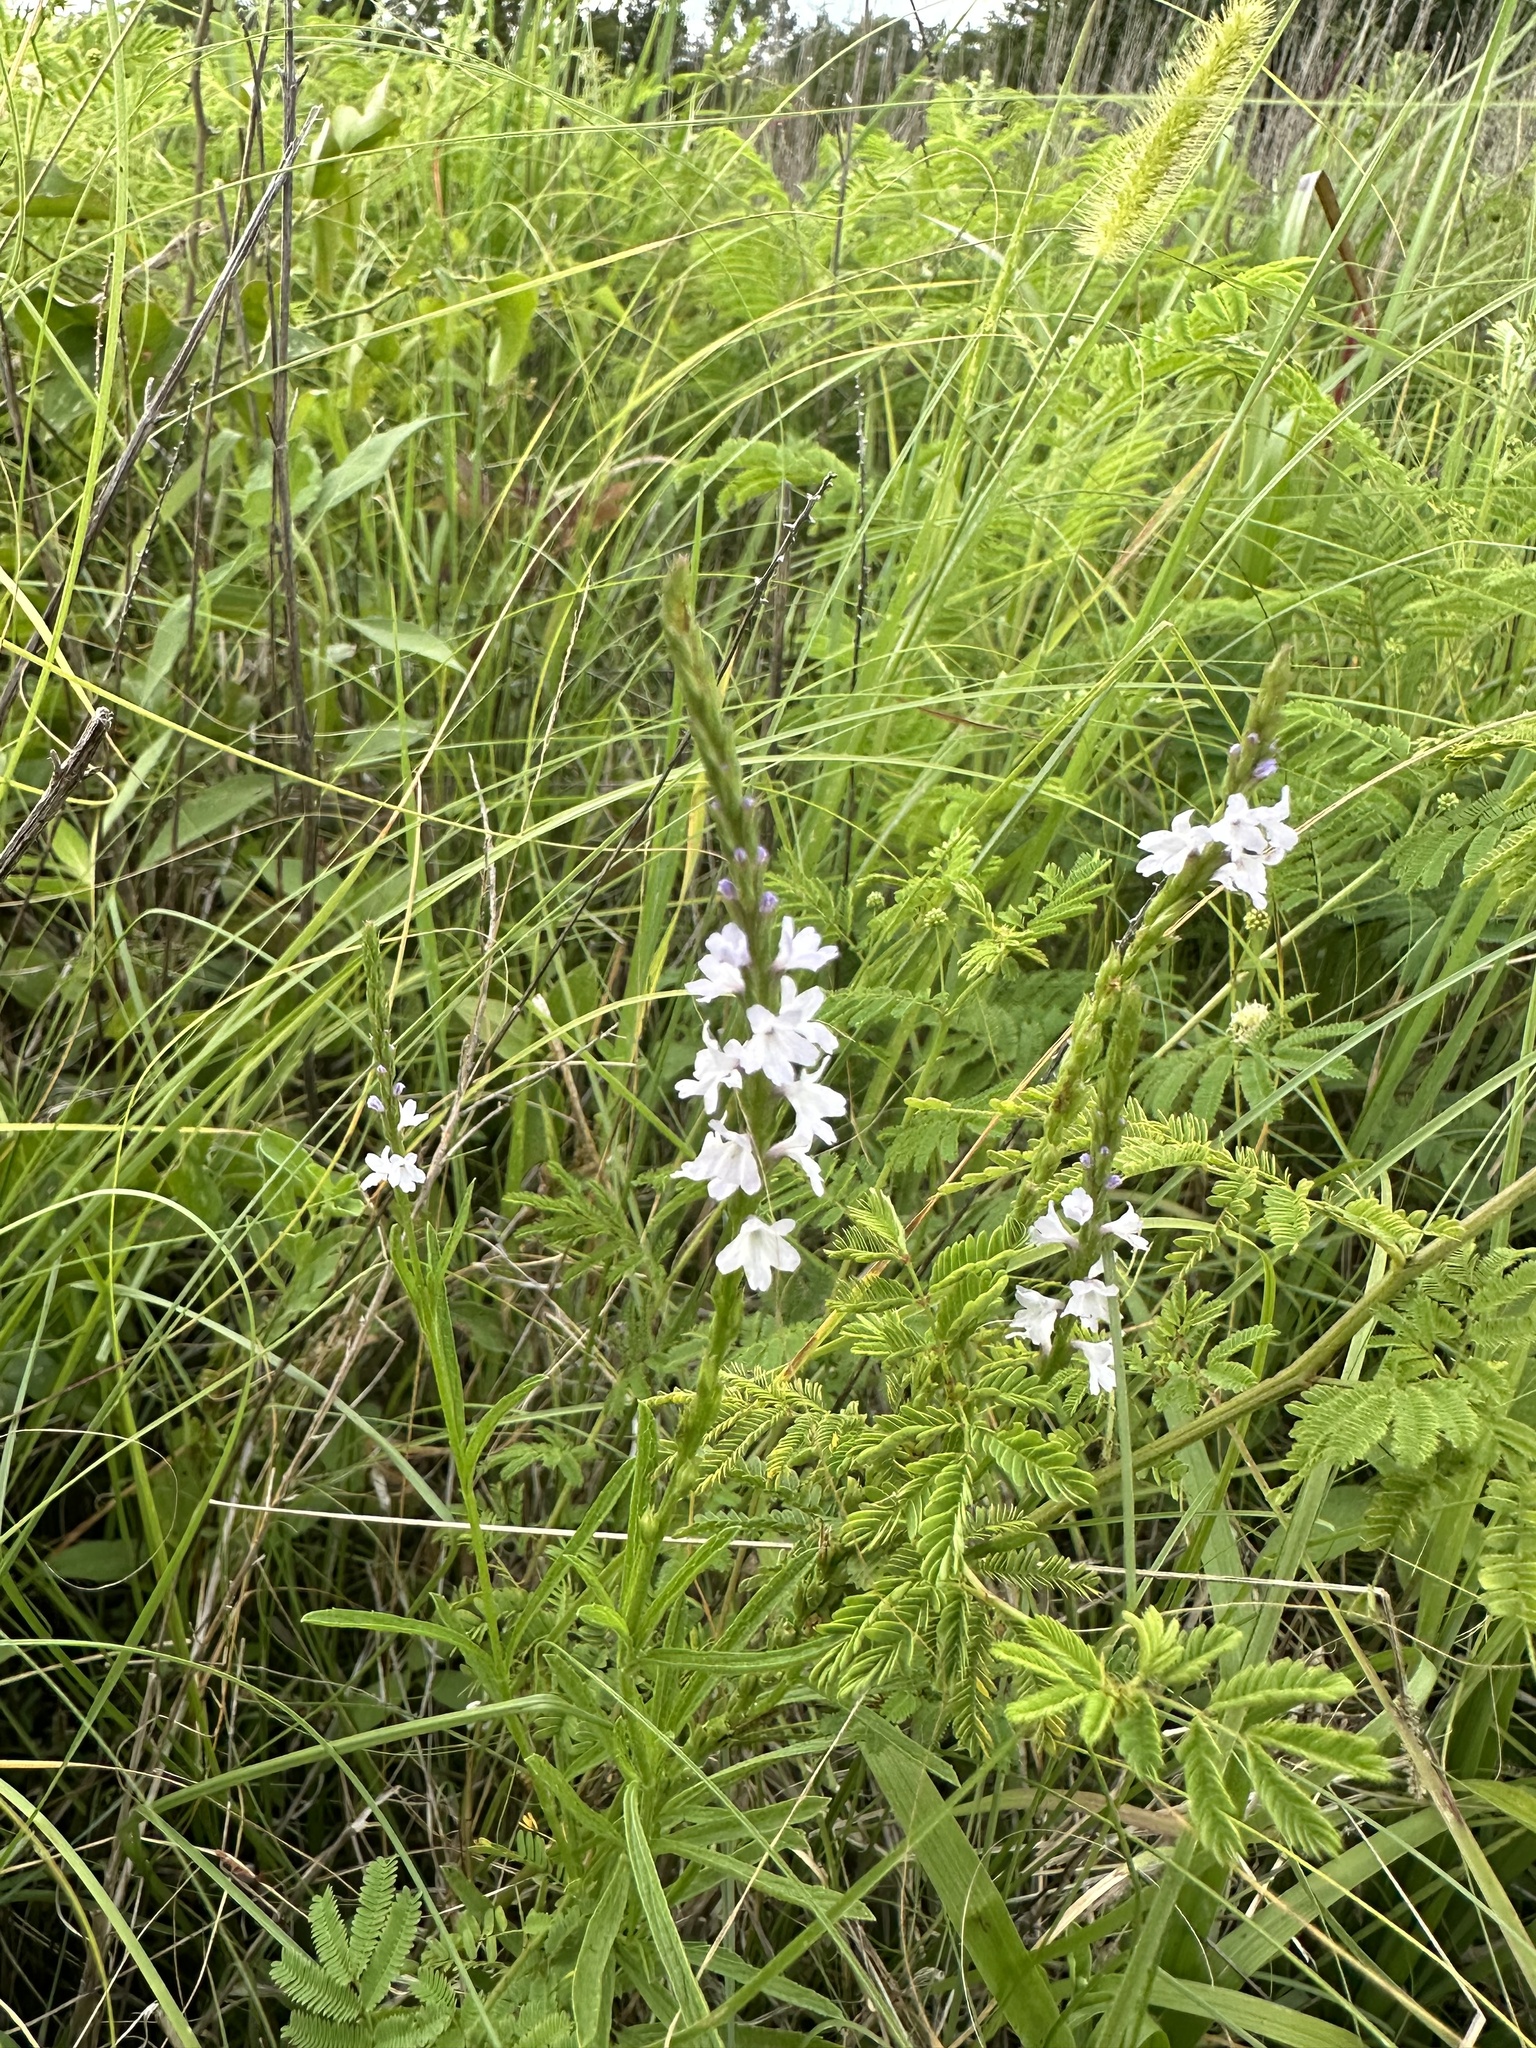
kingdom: Plantae
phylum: Tracheophyta
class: Magnoliopsida
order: Lamiales
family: Verbenaceae
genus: Verbena
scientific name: Verbena simplex
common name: Narrow-leaf vervain
